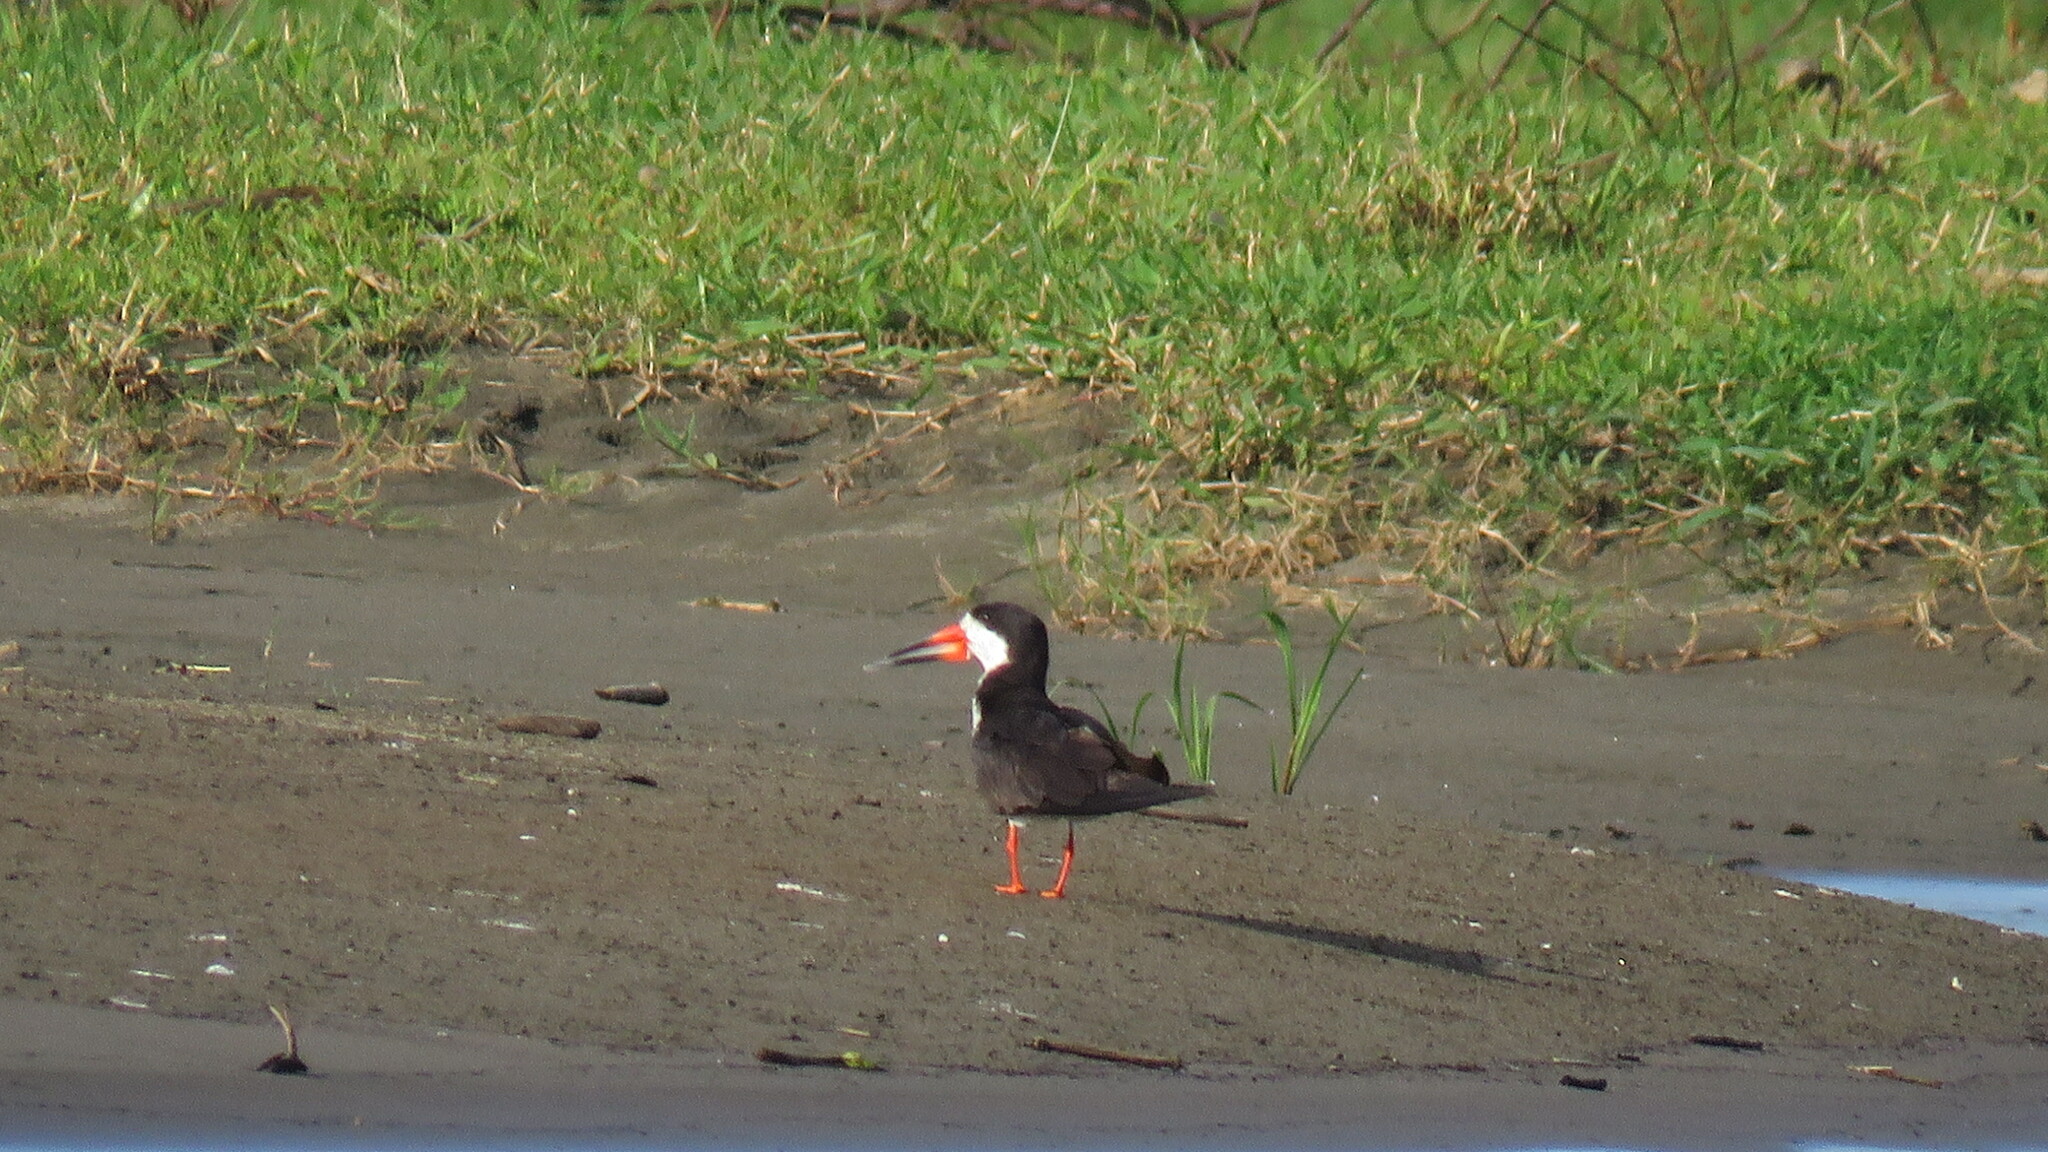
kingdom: Animalia
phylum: Chordata
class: Aves
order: Charadriiformes
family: Laridae
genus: Rynchops
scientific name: Rynchops niger
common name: Black skimmer
